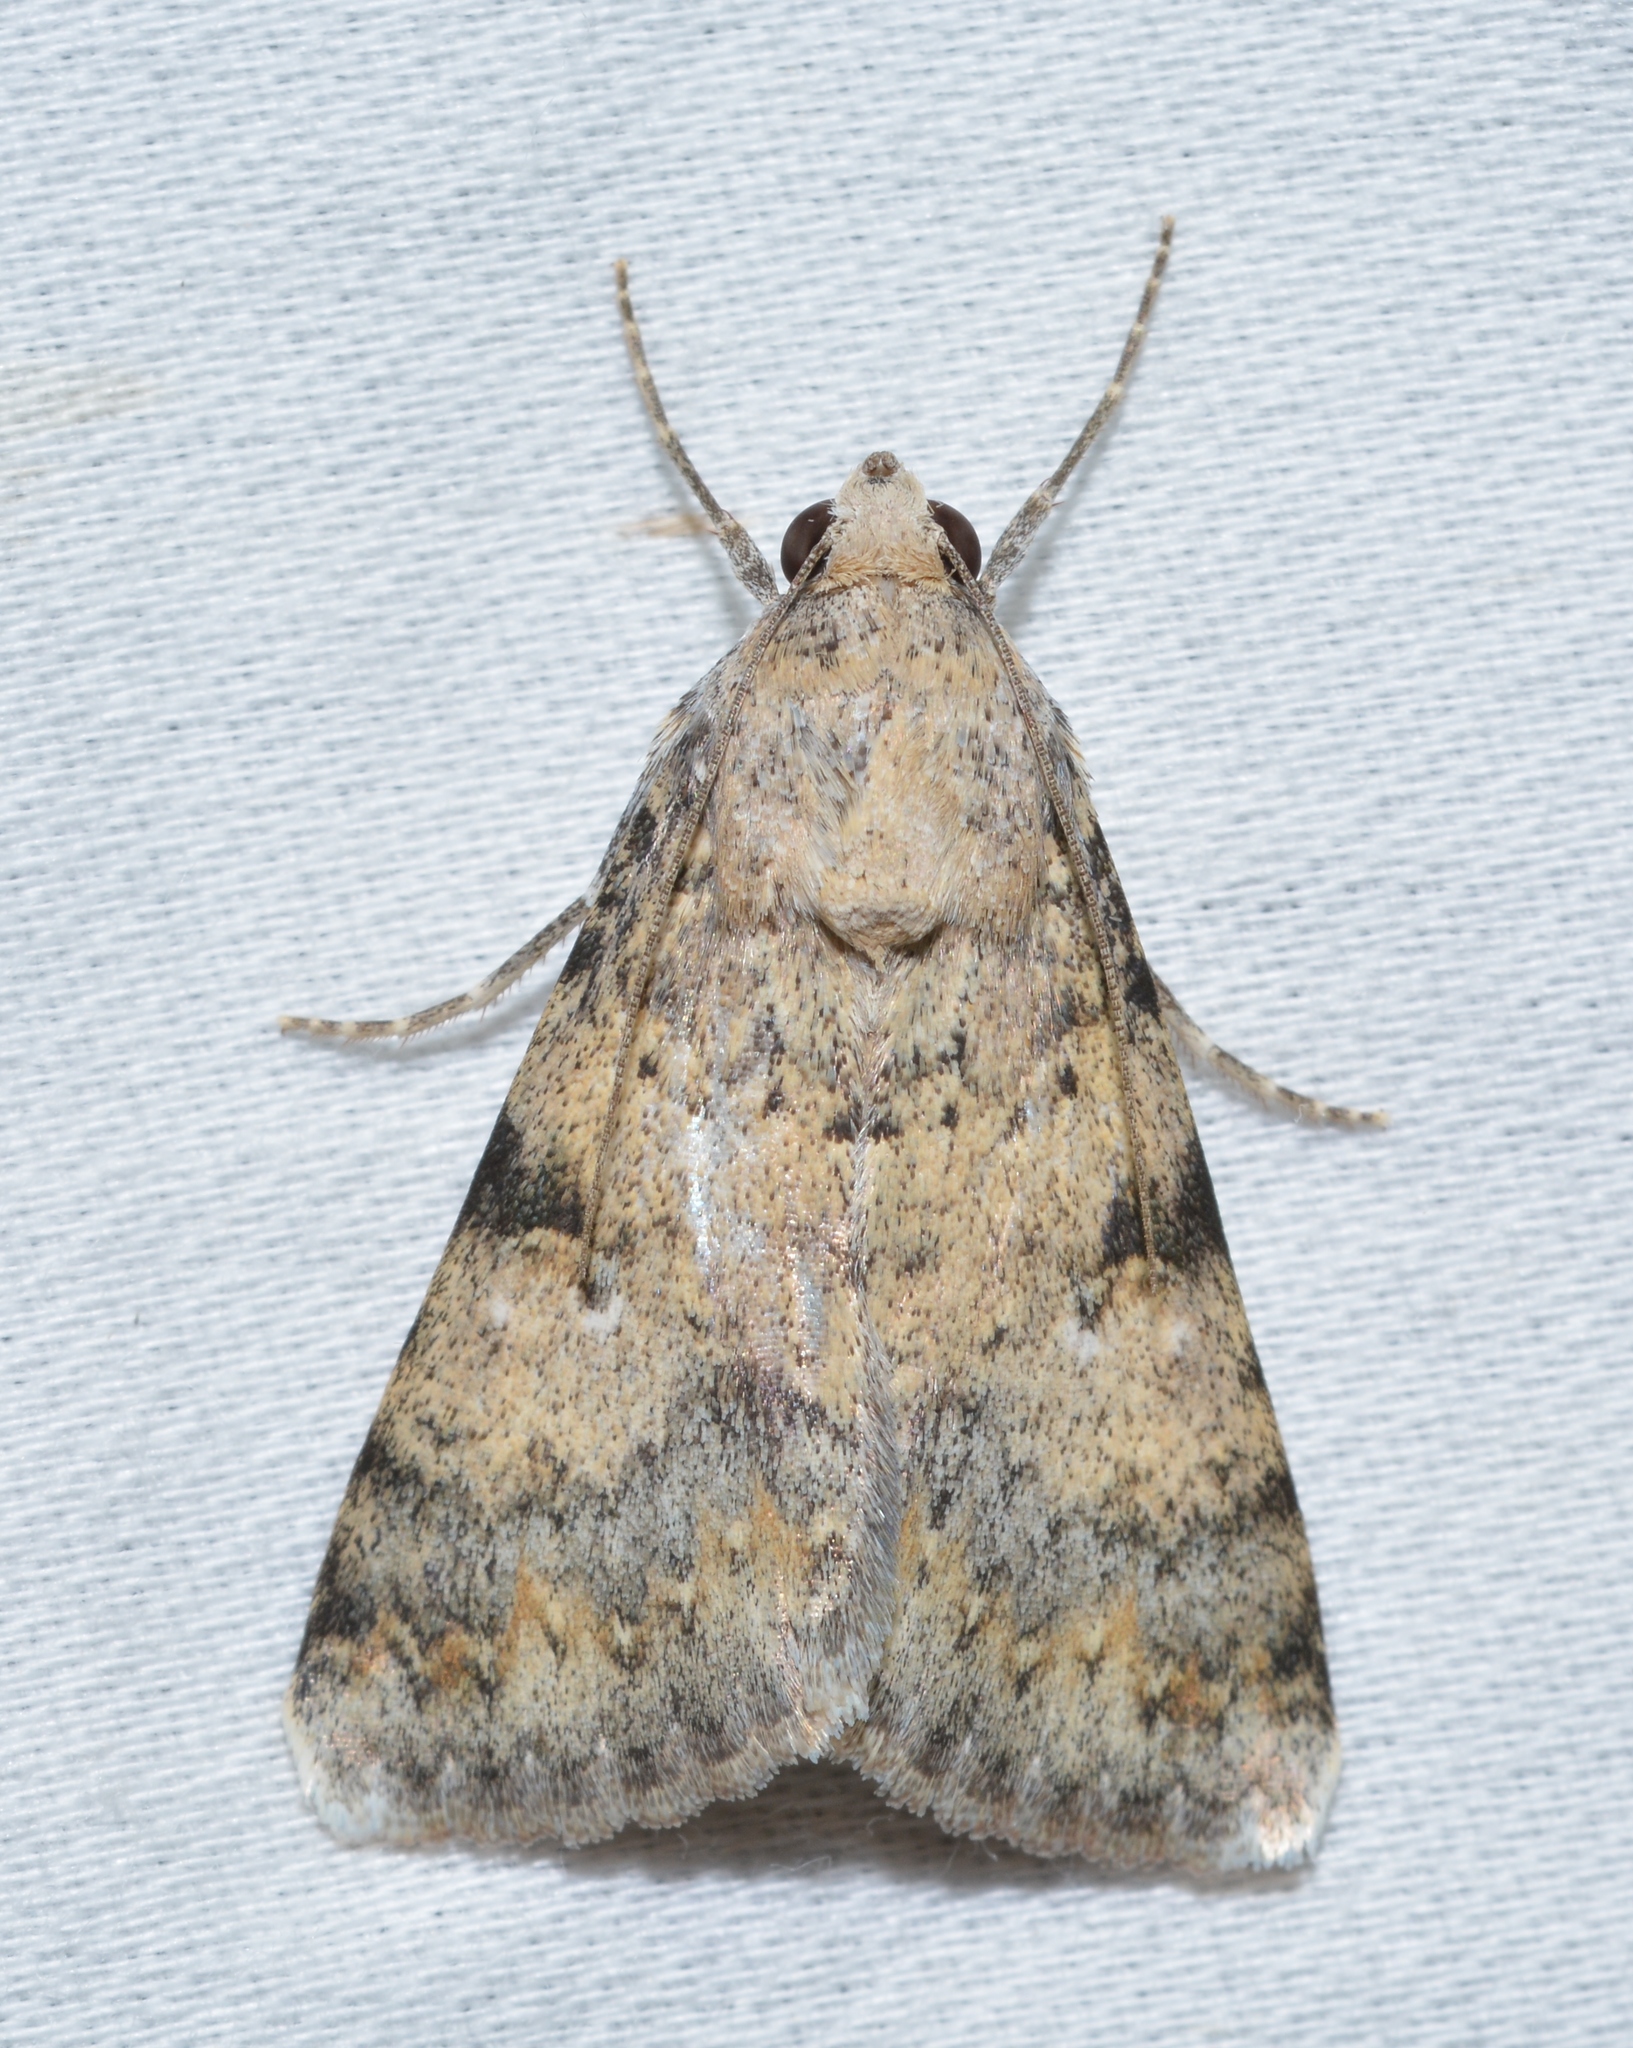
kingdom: Animalia
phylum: Arthropoda
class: Insecta
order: Lepidoptera
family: Erebidae
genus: Melipotis
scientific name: Melipotis jucunda
